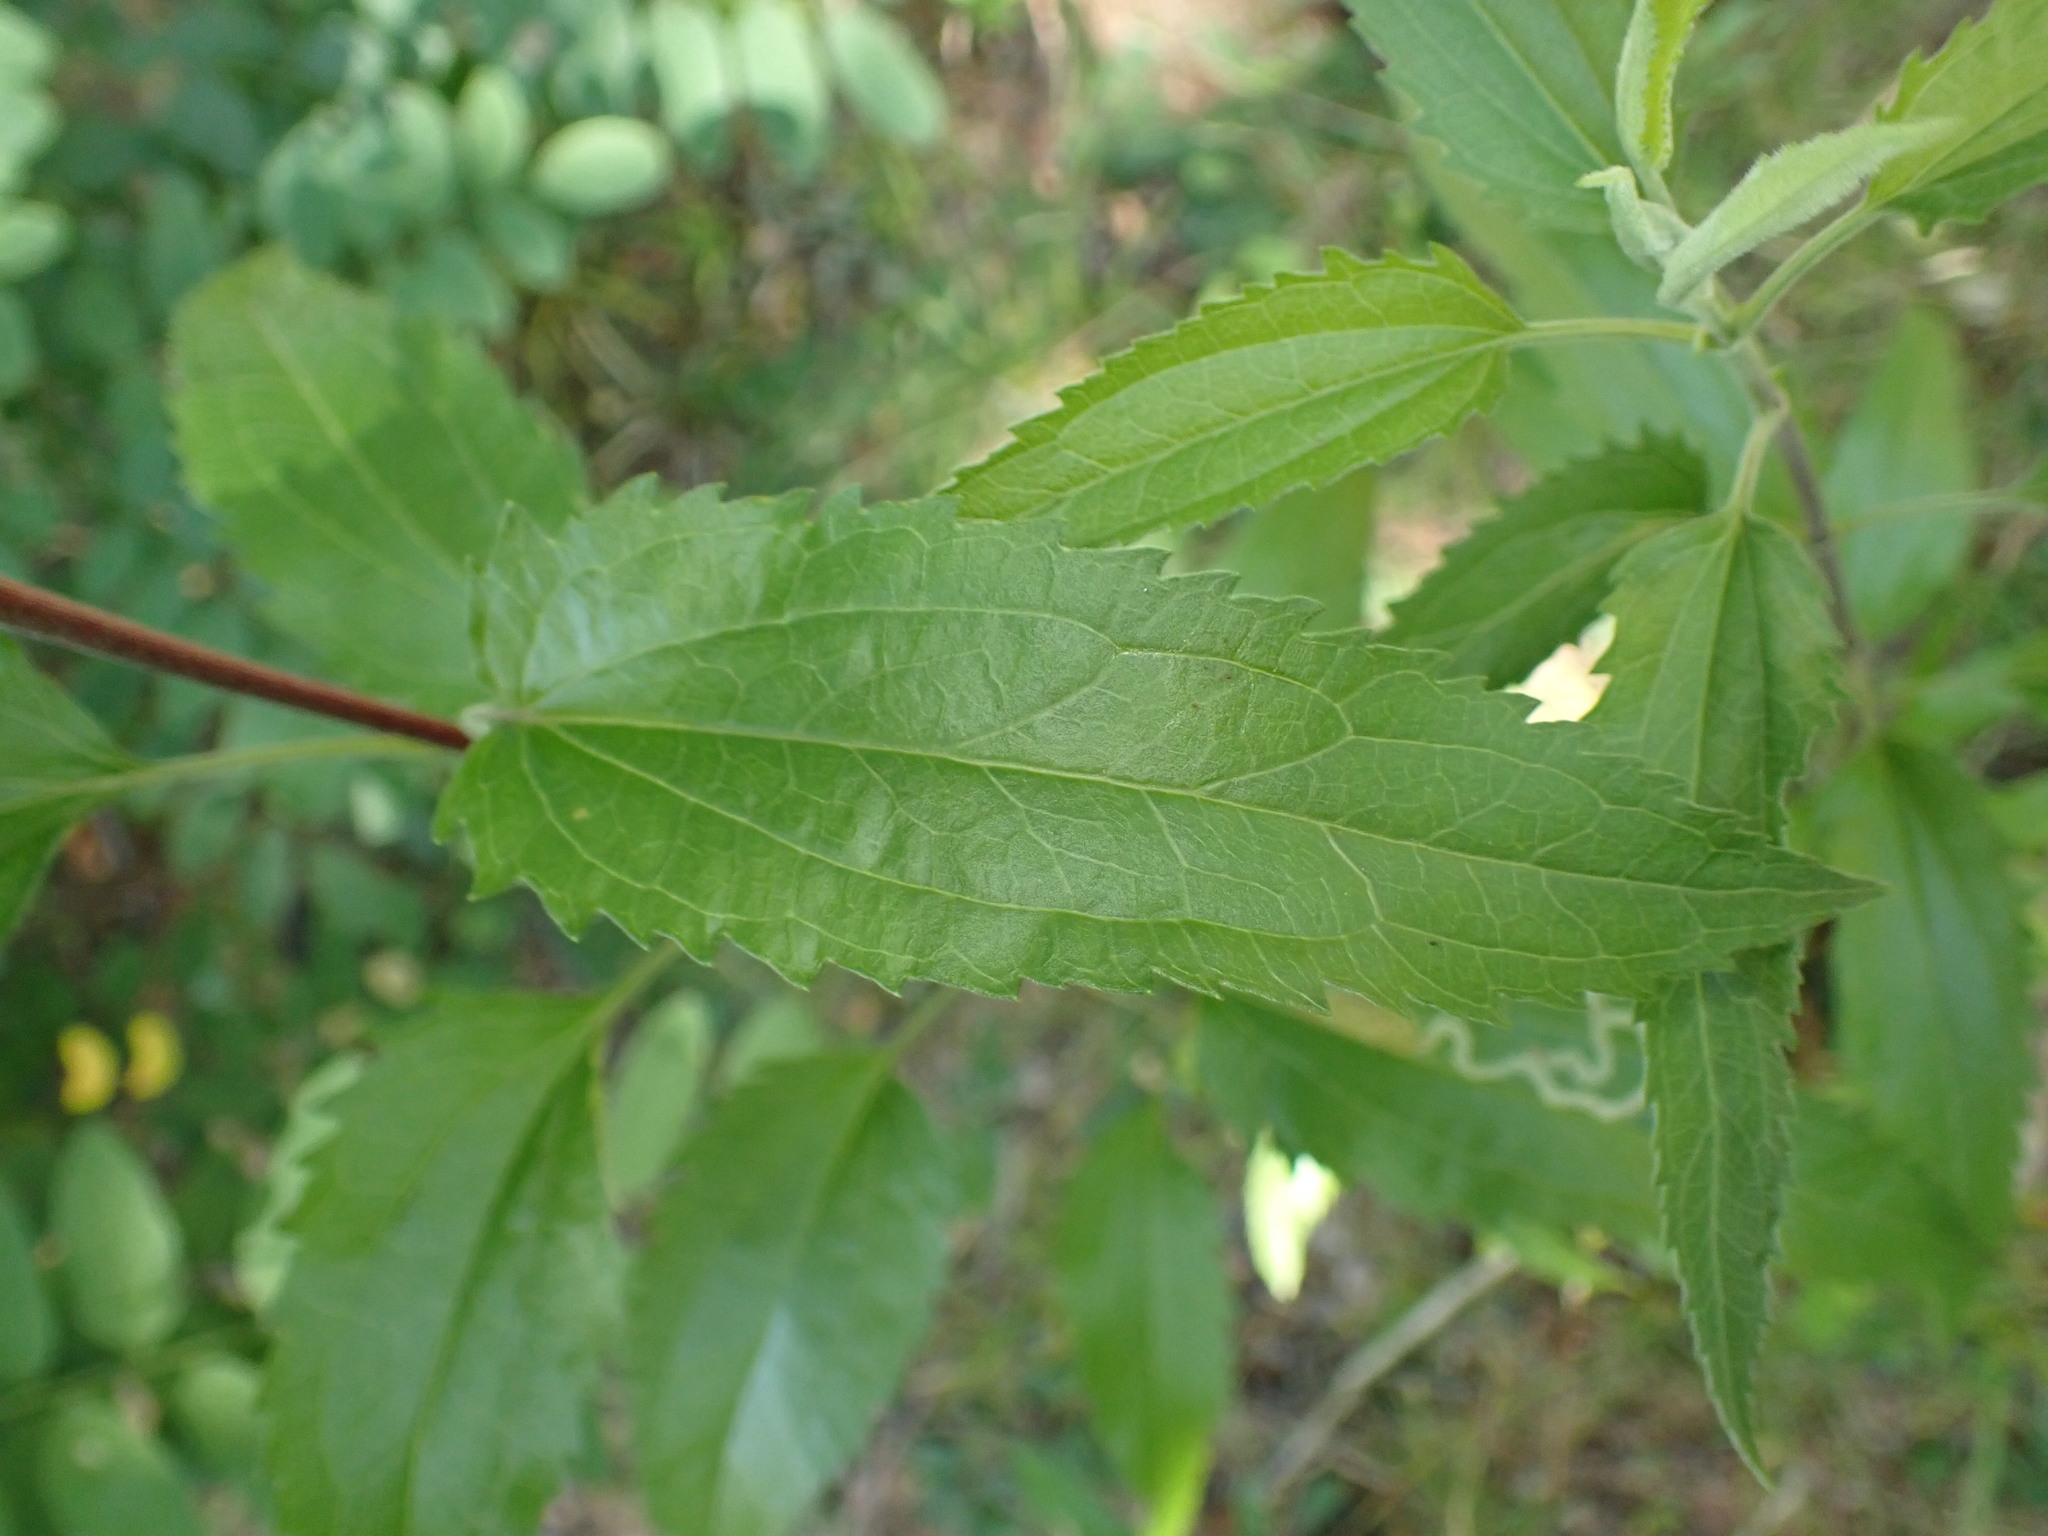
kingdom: Plantae
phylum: Tracheophyta
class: Magnoliopsida
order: Asterales
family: Asteraceae
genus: Eupatorium
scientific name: Eupatorium serotinum
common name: Late boneset
